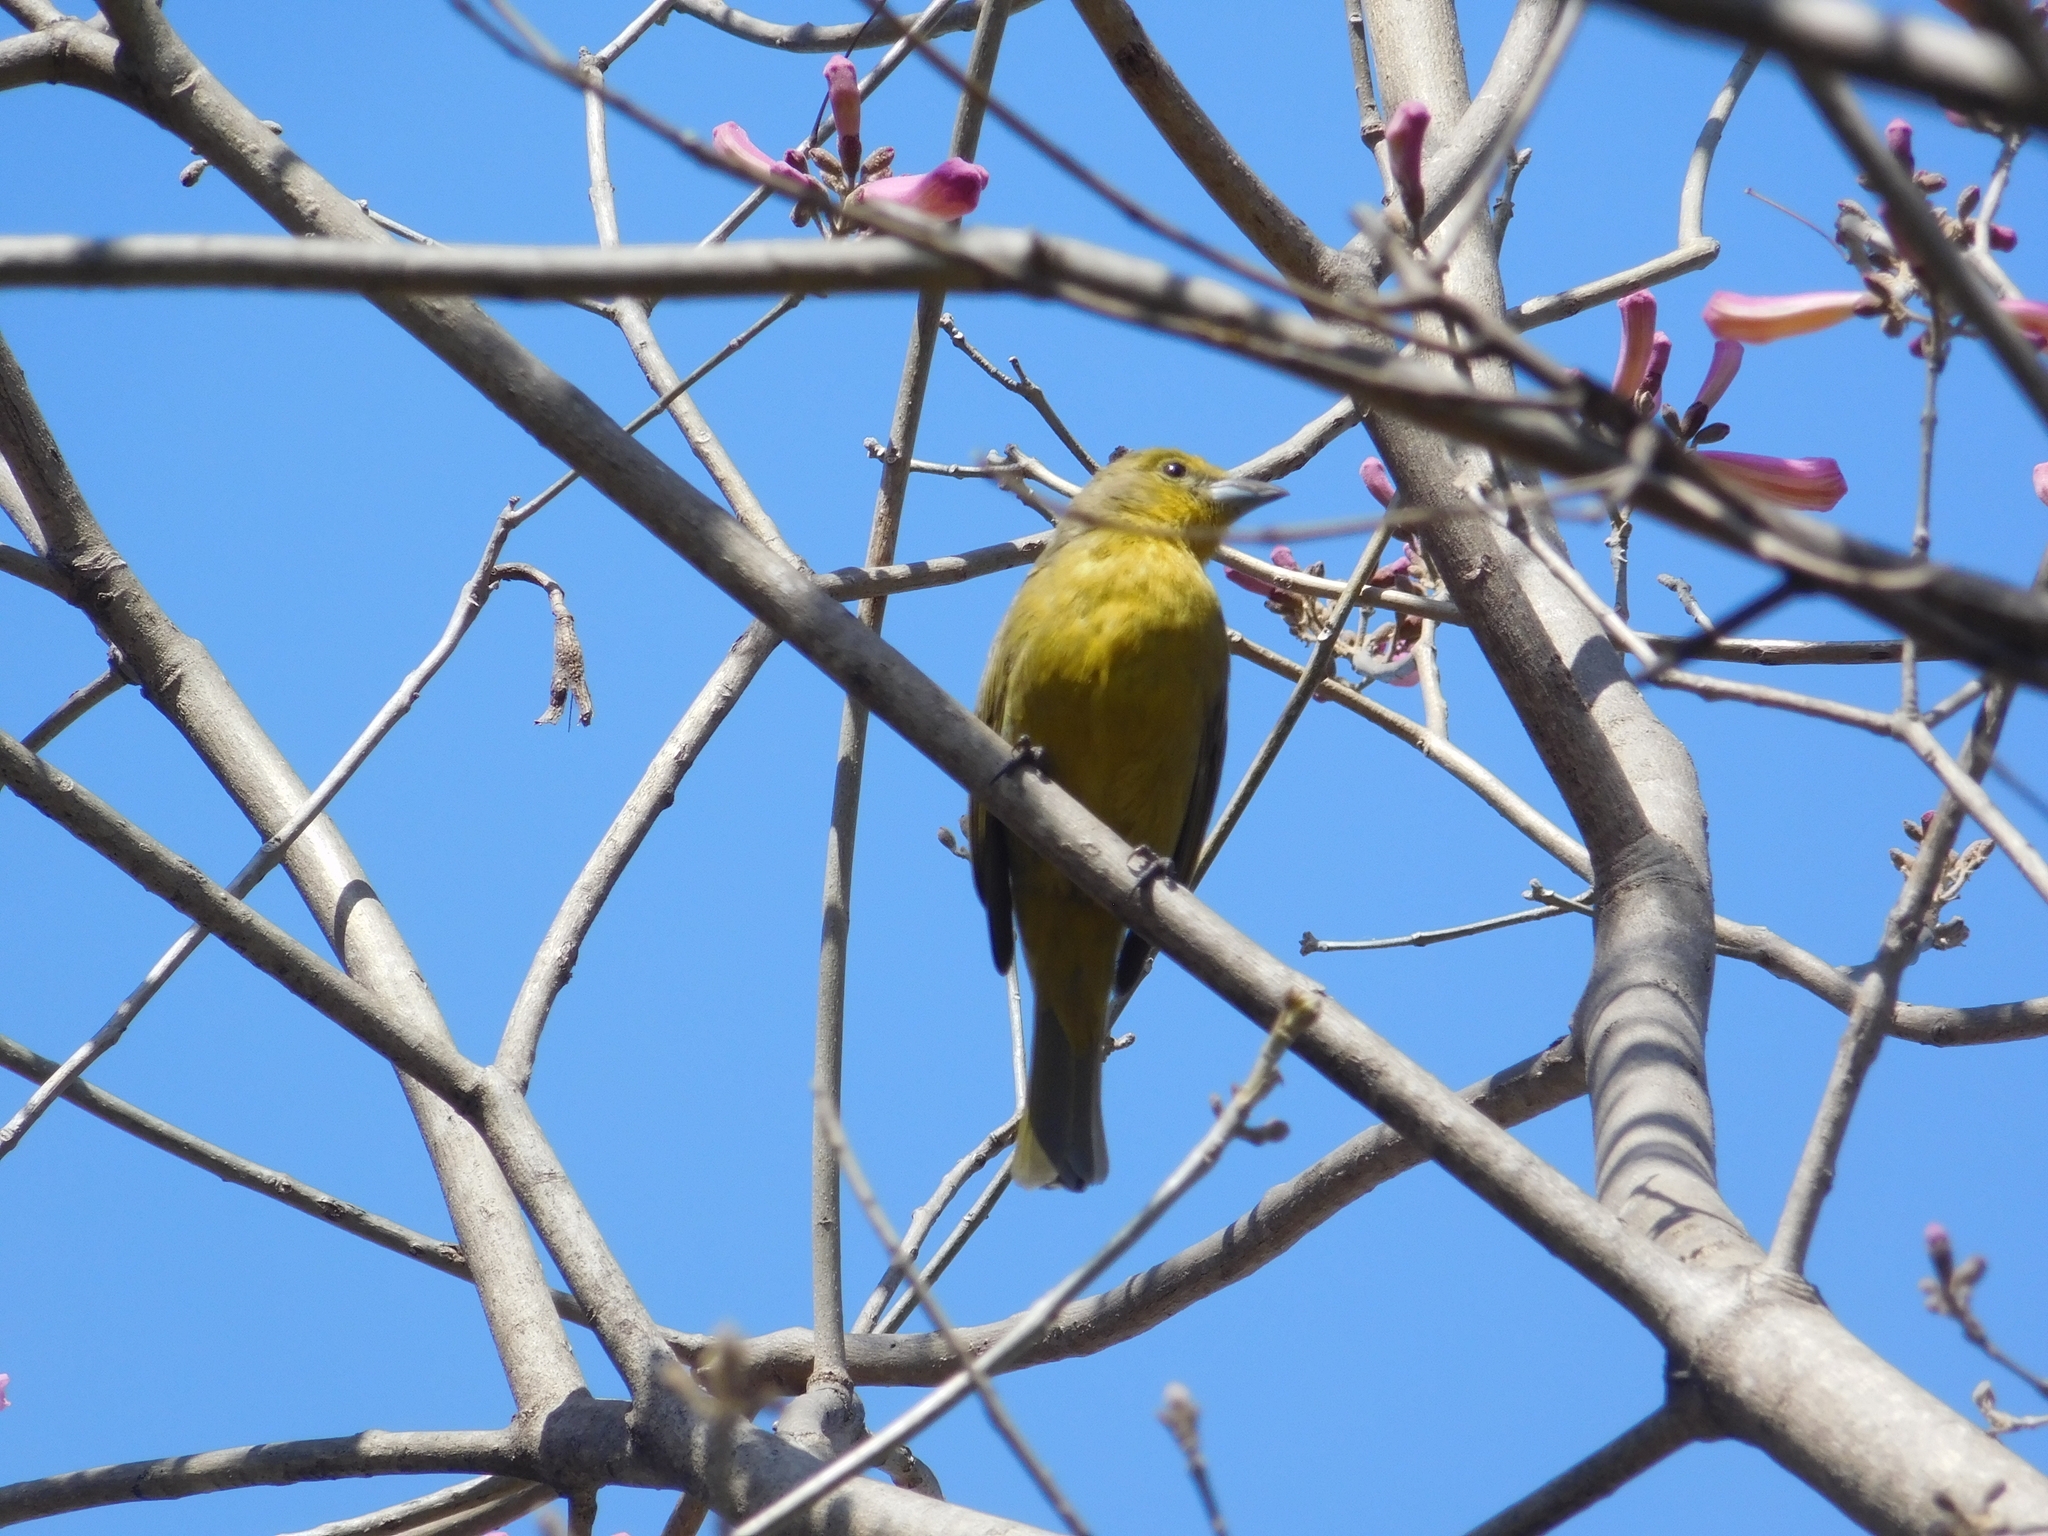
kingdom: Animalia
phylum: Chordata
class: Aves
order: Passeriformes
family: Cardinalidae
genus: Piranga
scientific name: Piranga flava
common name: Red tanager
